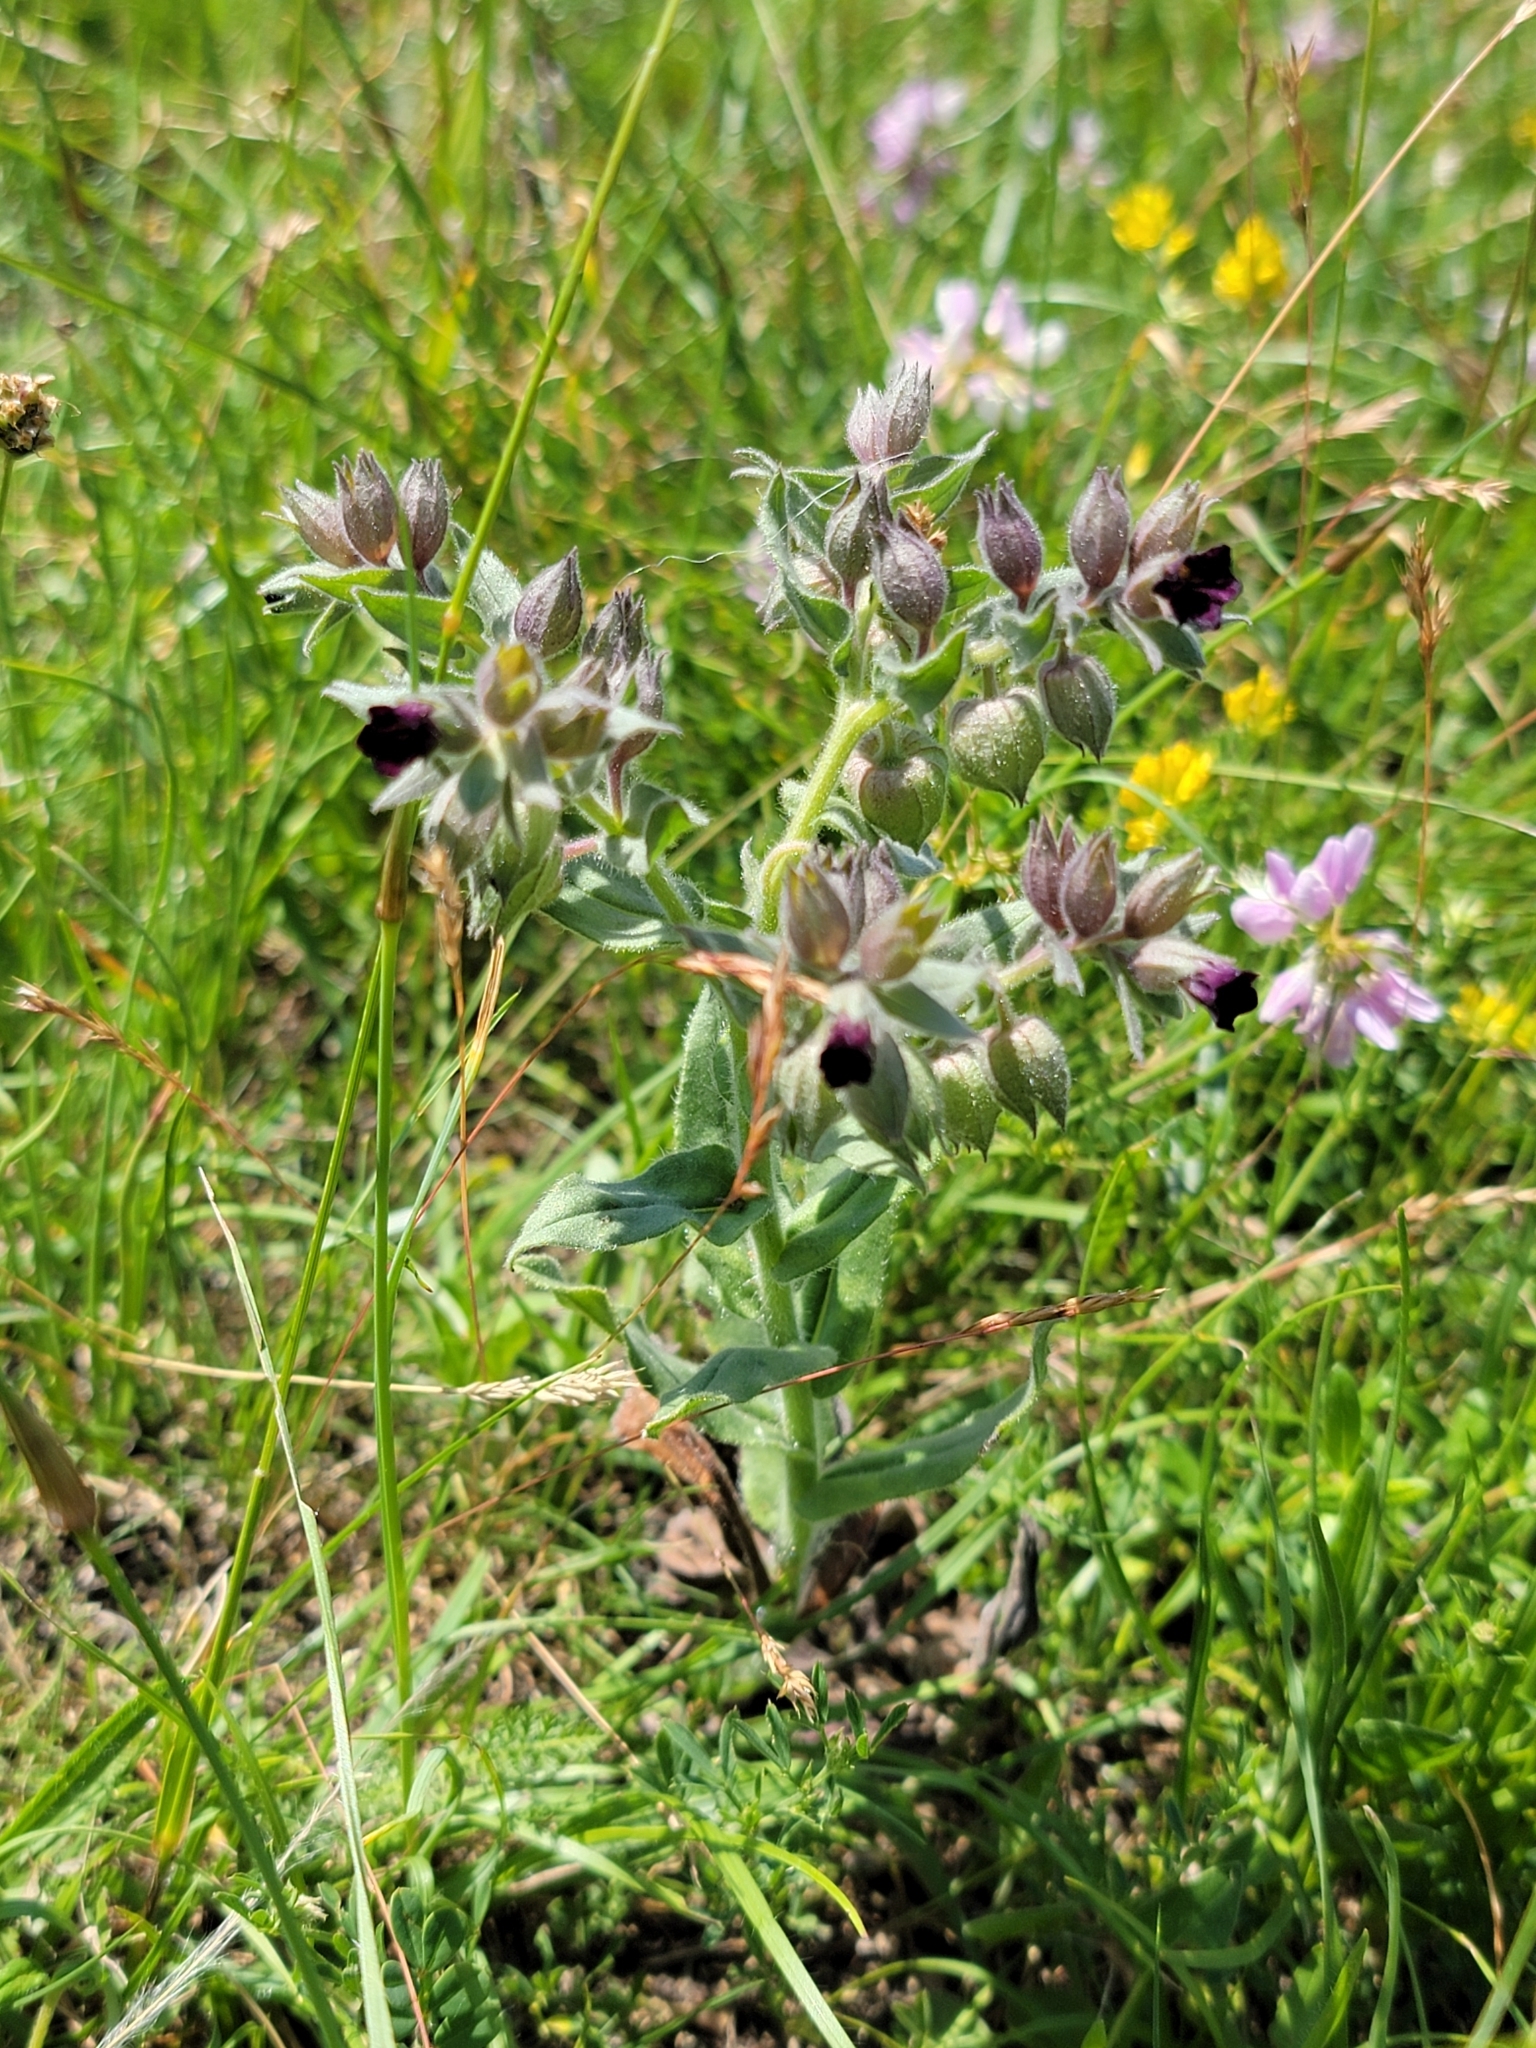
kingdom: Plantae
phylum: Tracheophyta
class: Magnoliopsida
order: Boraginales
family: Boraginaceae
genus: Nonea
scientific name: Nonea pulla
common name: Brown nonea
